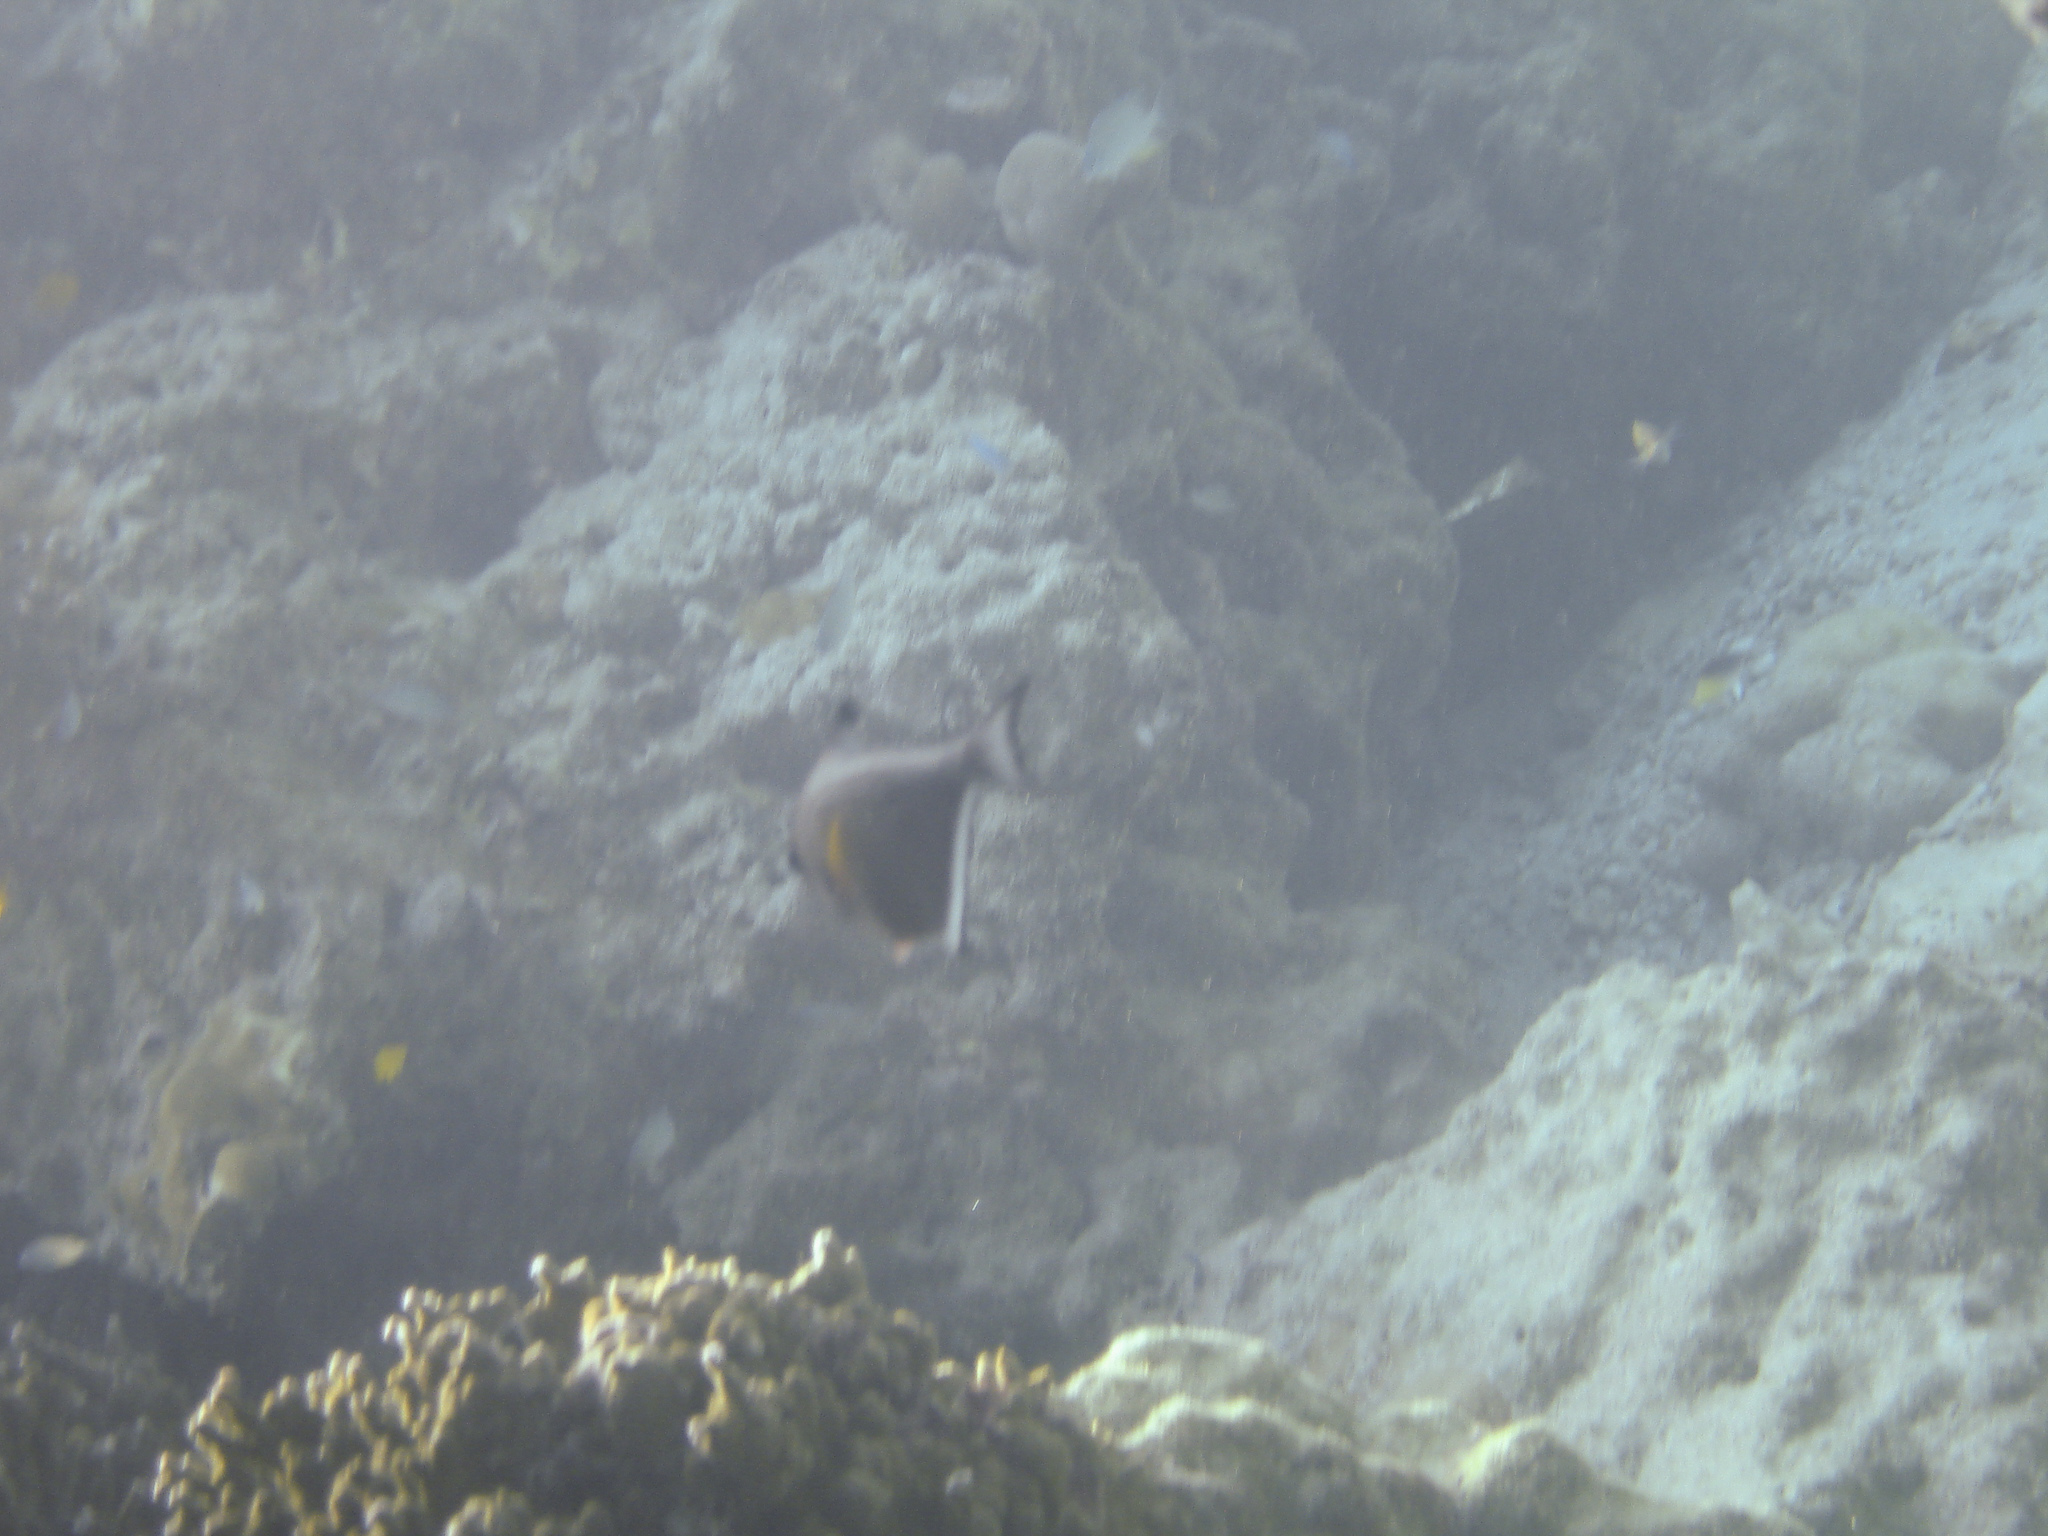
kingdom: Animalia
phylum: Chordata
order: Perciformes
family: Pempheridae
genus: Pempheris
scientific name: Pempheris vanicolensis
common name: Vanikoro sweeper
